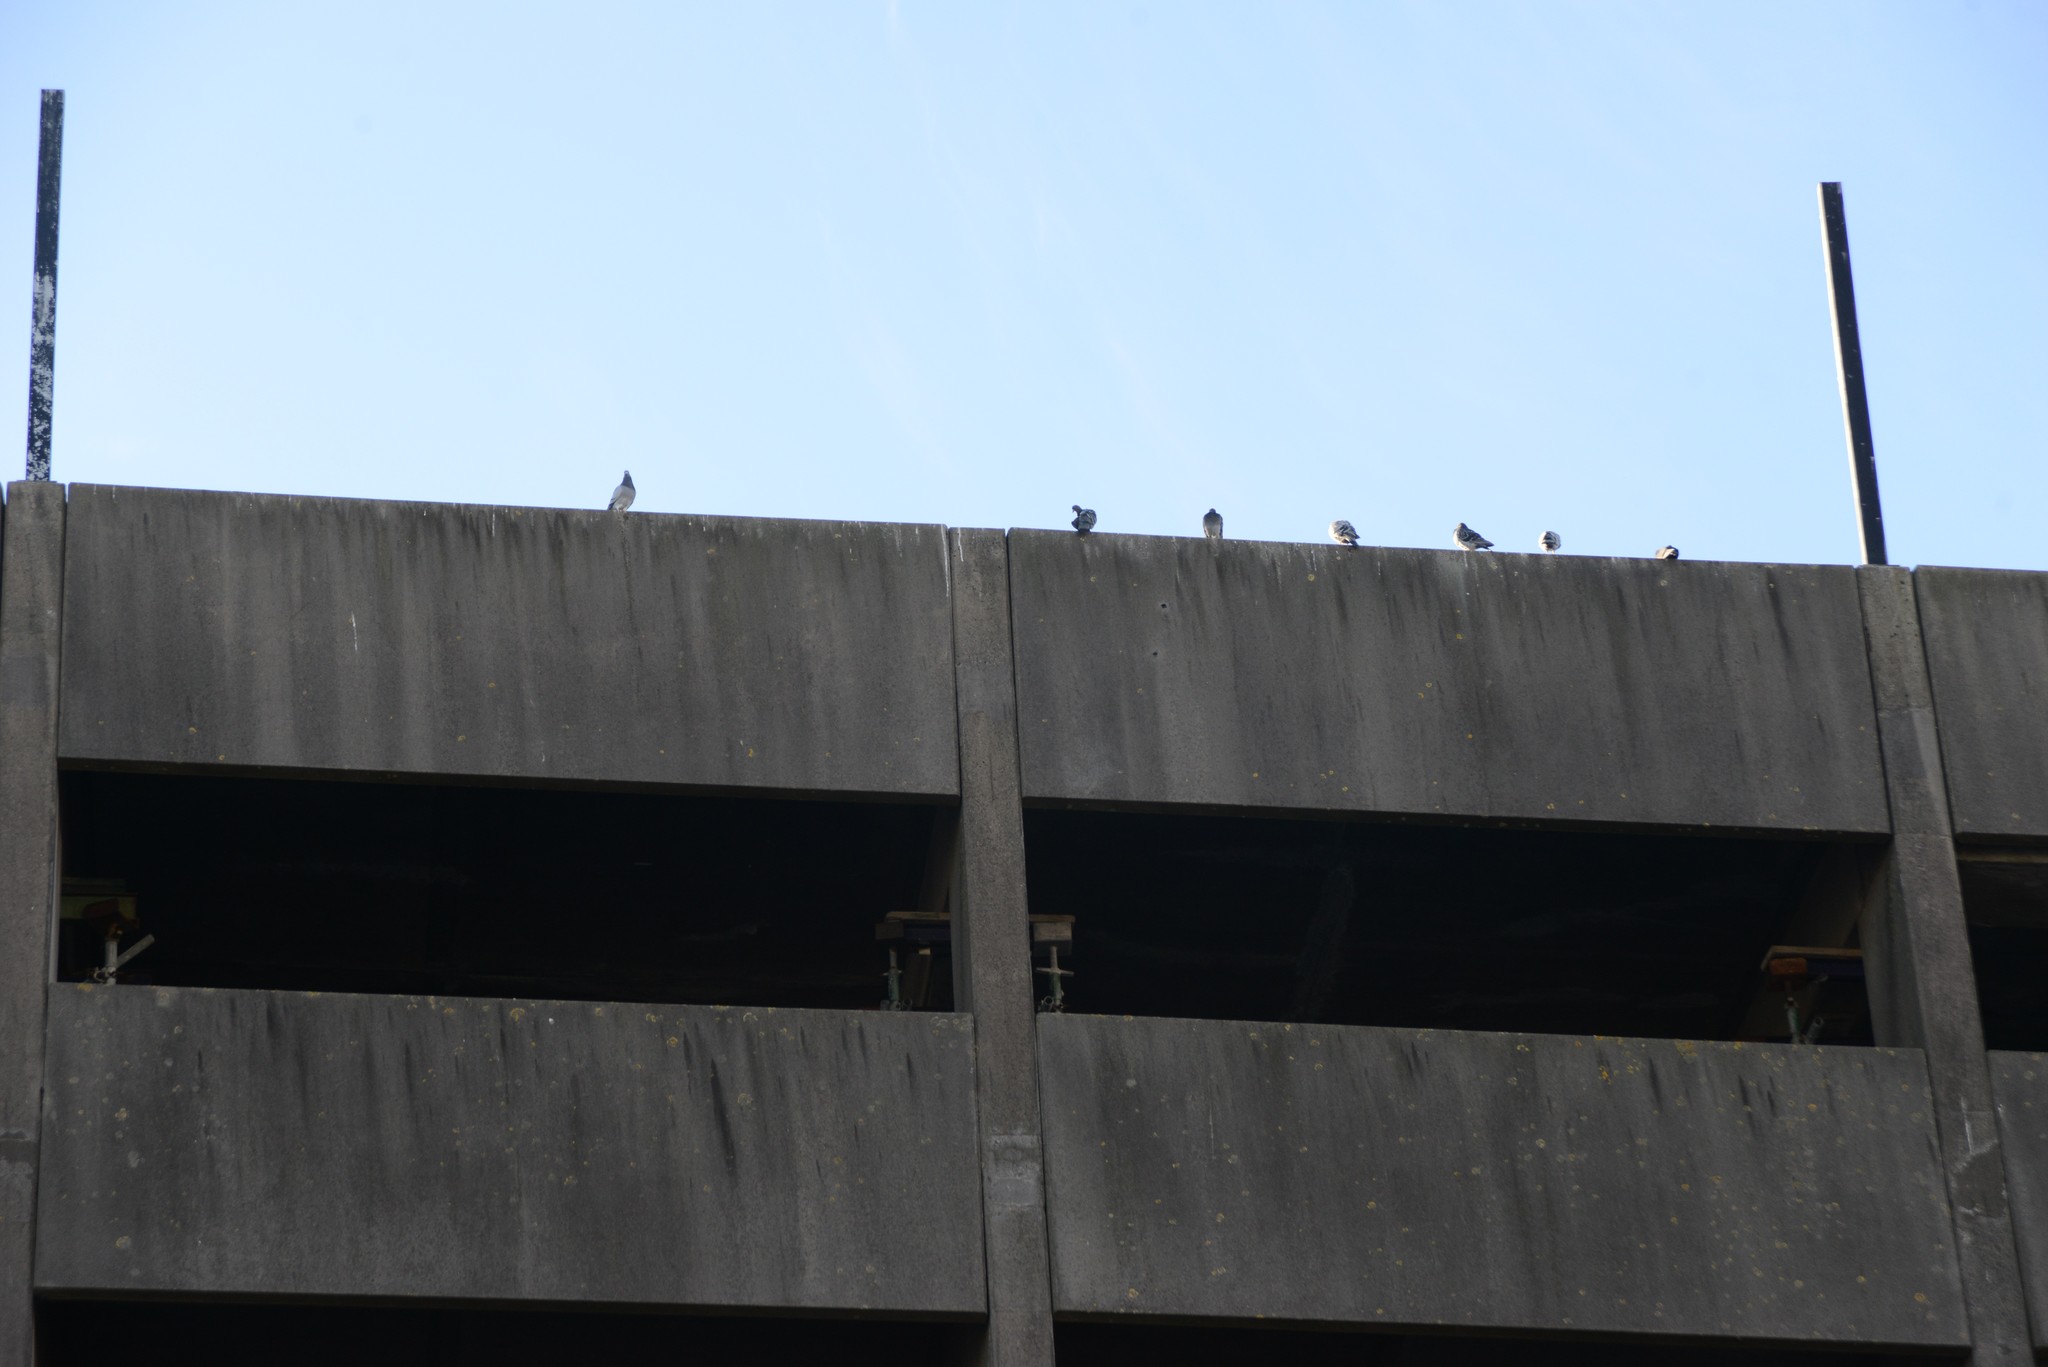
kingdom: Animalia
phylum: Chordata
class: Aves
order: Columbiformes
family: Columbidae
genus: Columba
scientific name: Columba livia
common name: Rock pigeon
